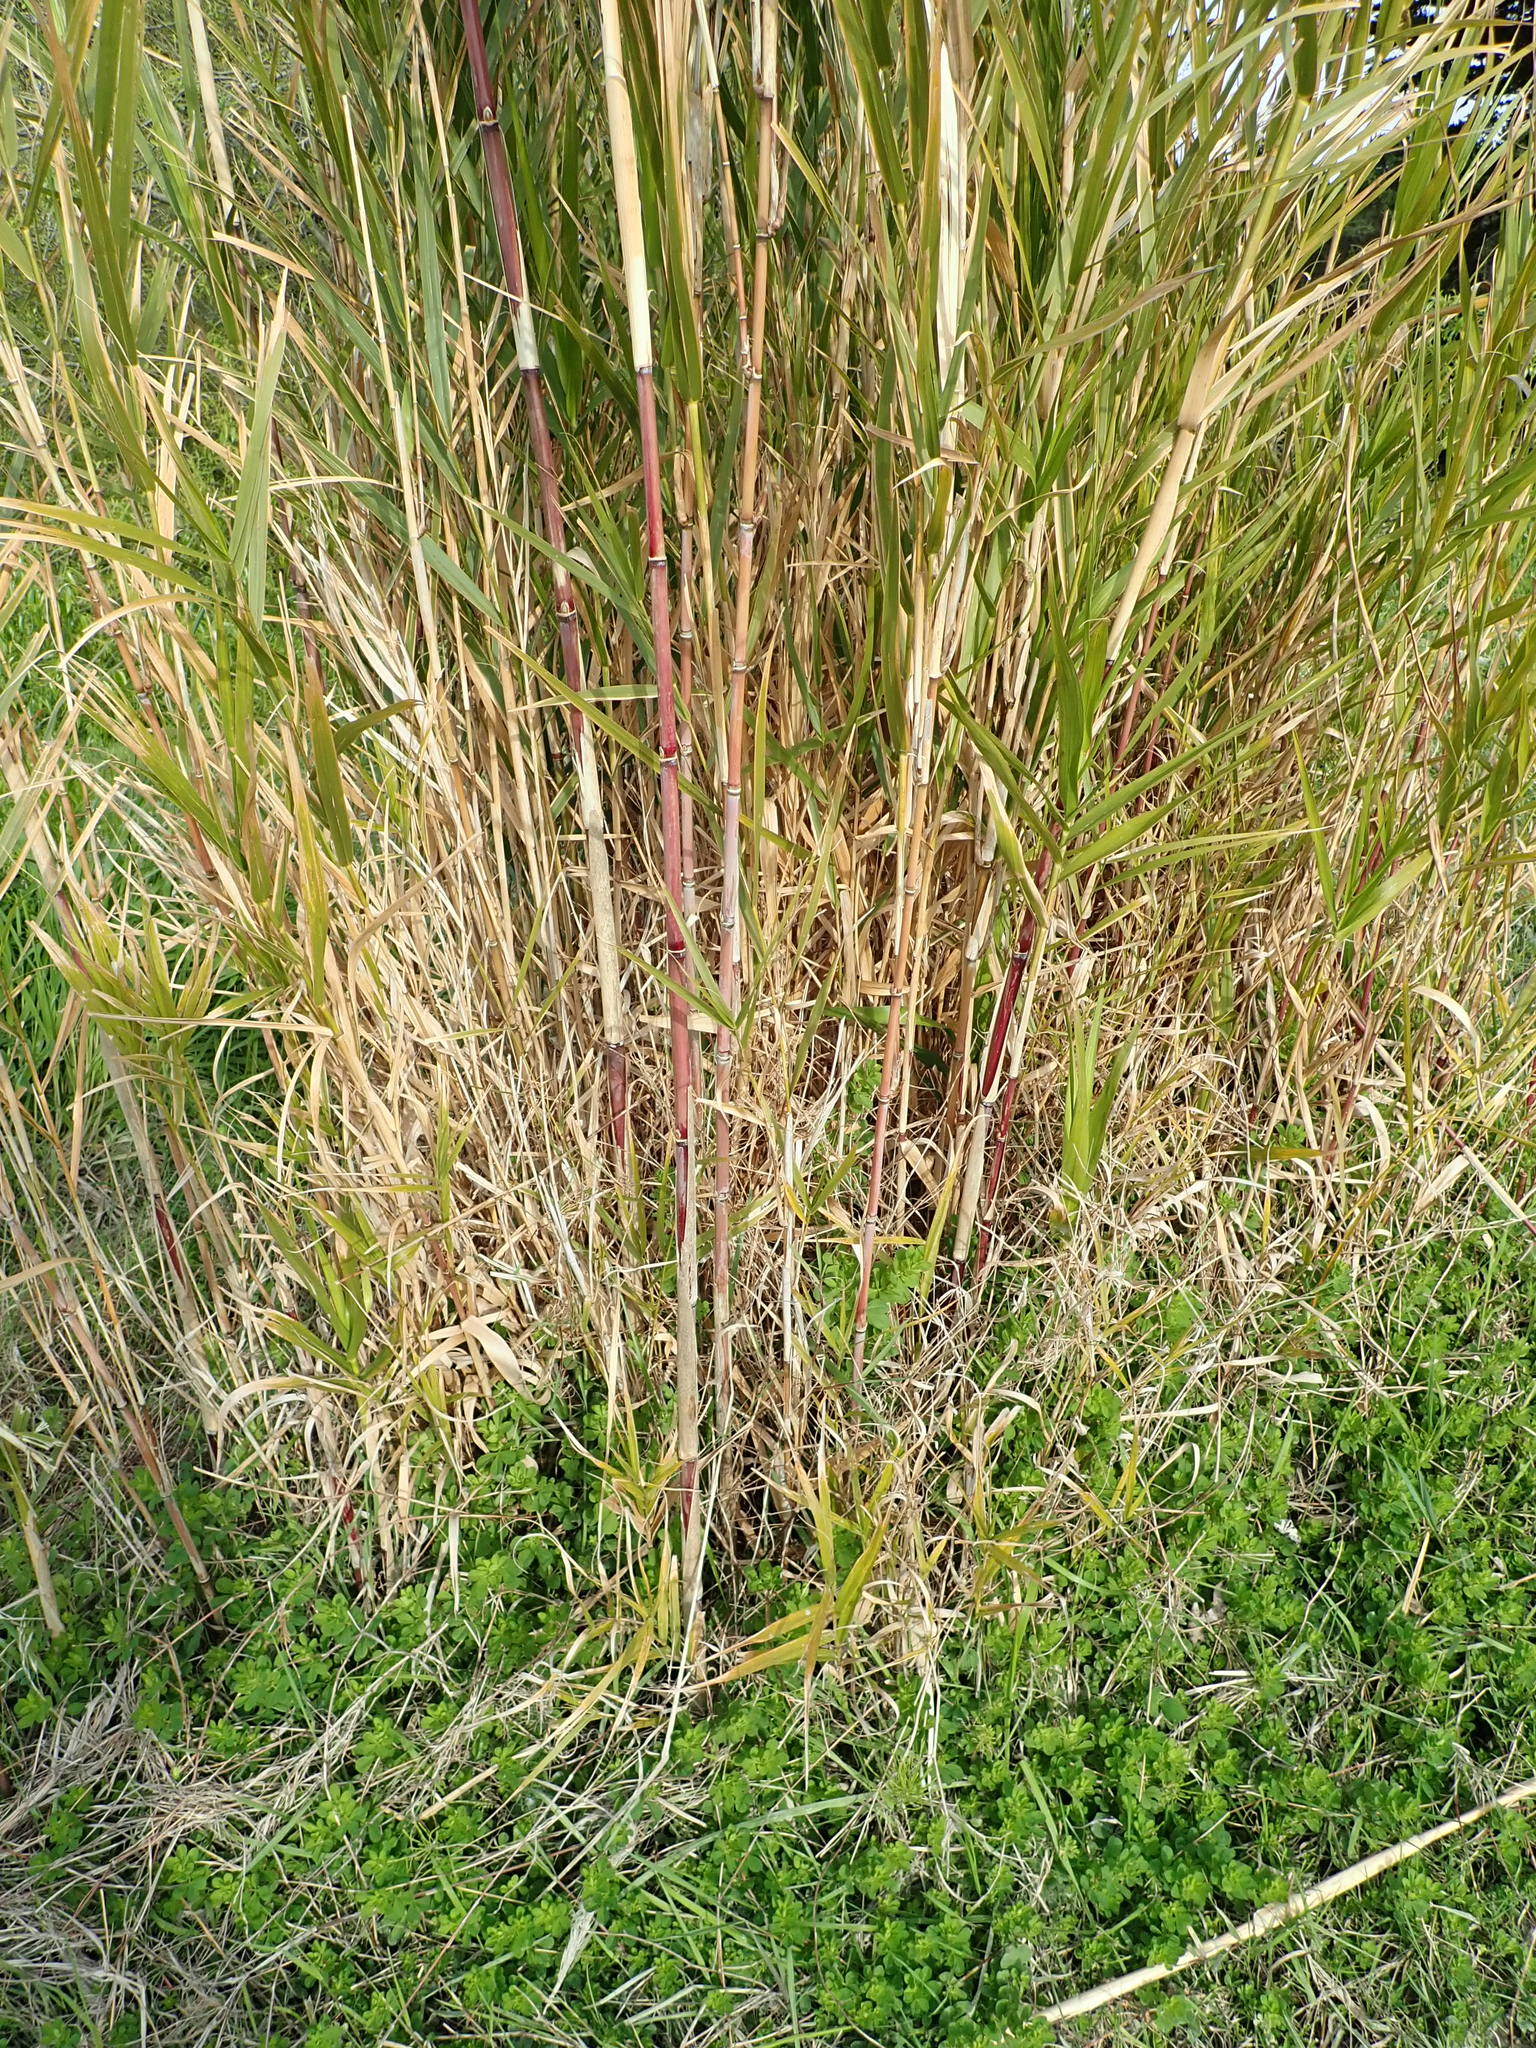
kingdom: Plantae
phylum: Tracheophyta
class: Liliopsida
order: Poales
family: Poaceae
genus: Phragmites
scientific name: Phragmites karka
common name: Tropical reed
